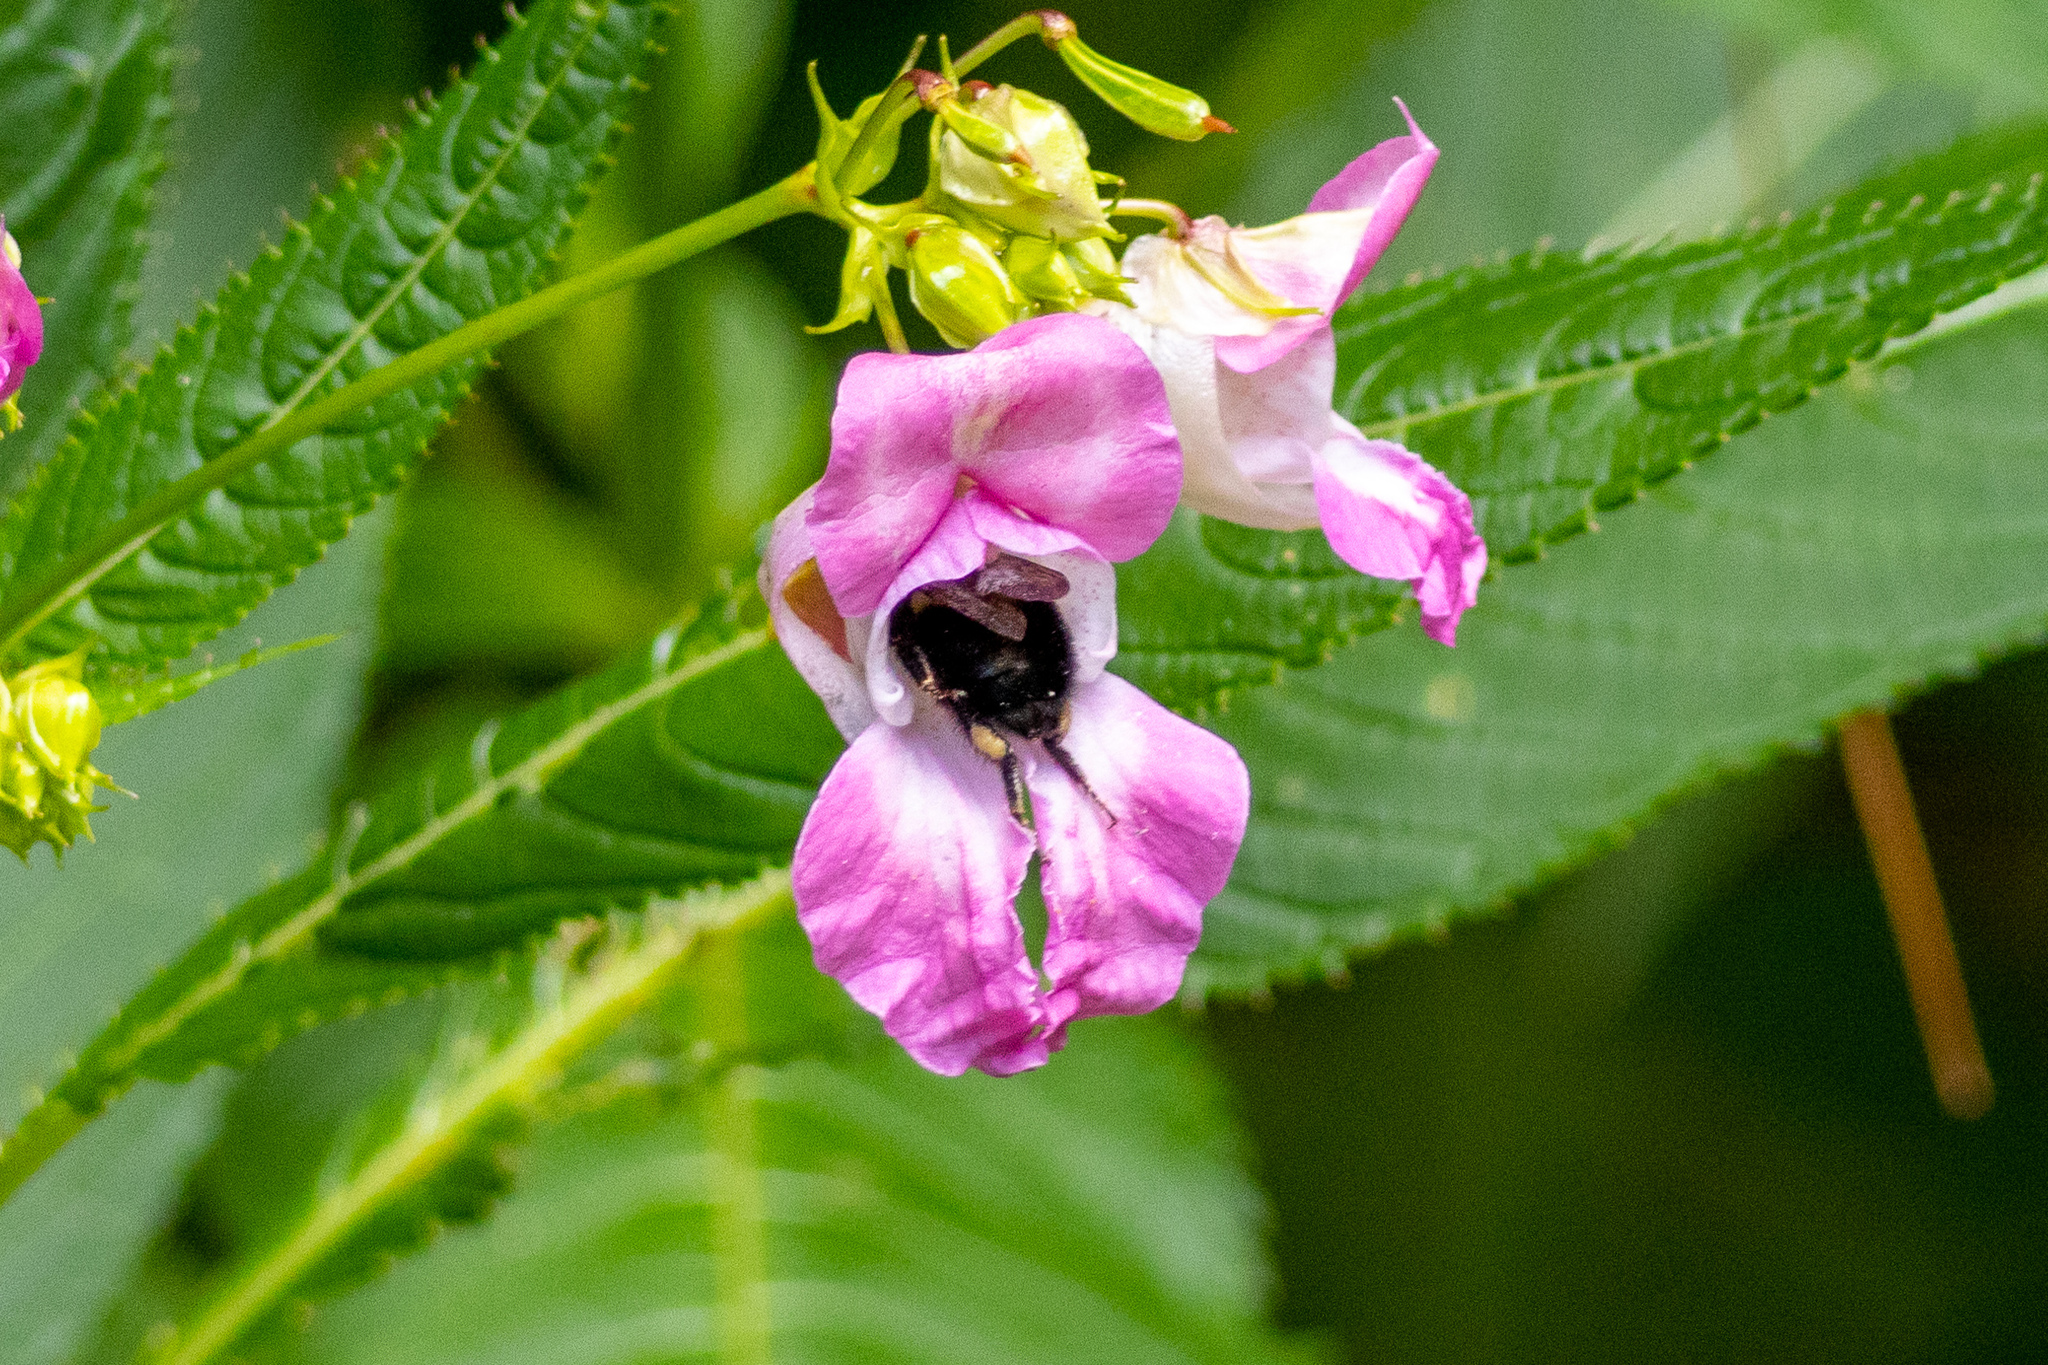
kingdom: Animalia
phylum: Arthropoda
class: Insecta
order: Hymenoptera
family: Apidae
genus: Bombus
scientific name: Bombus
